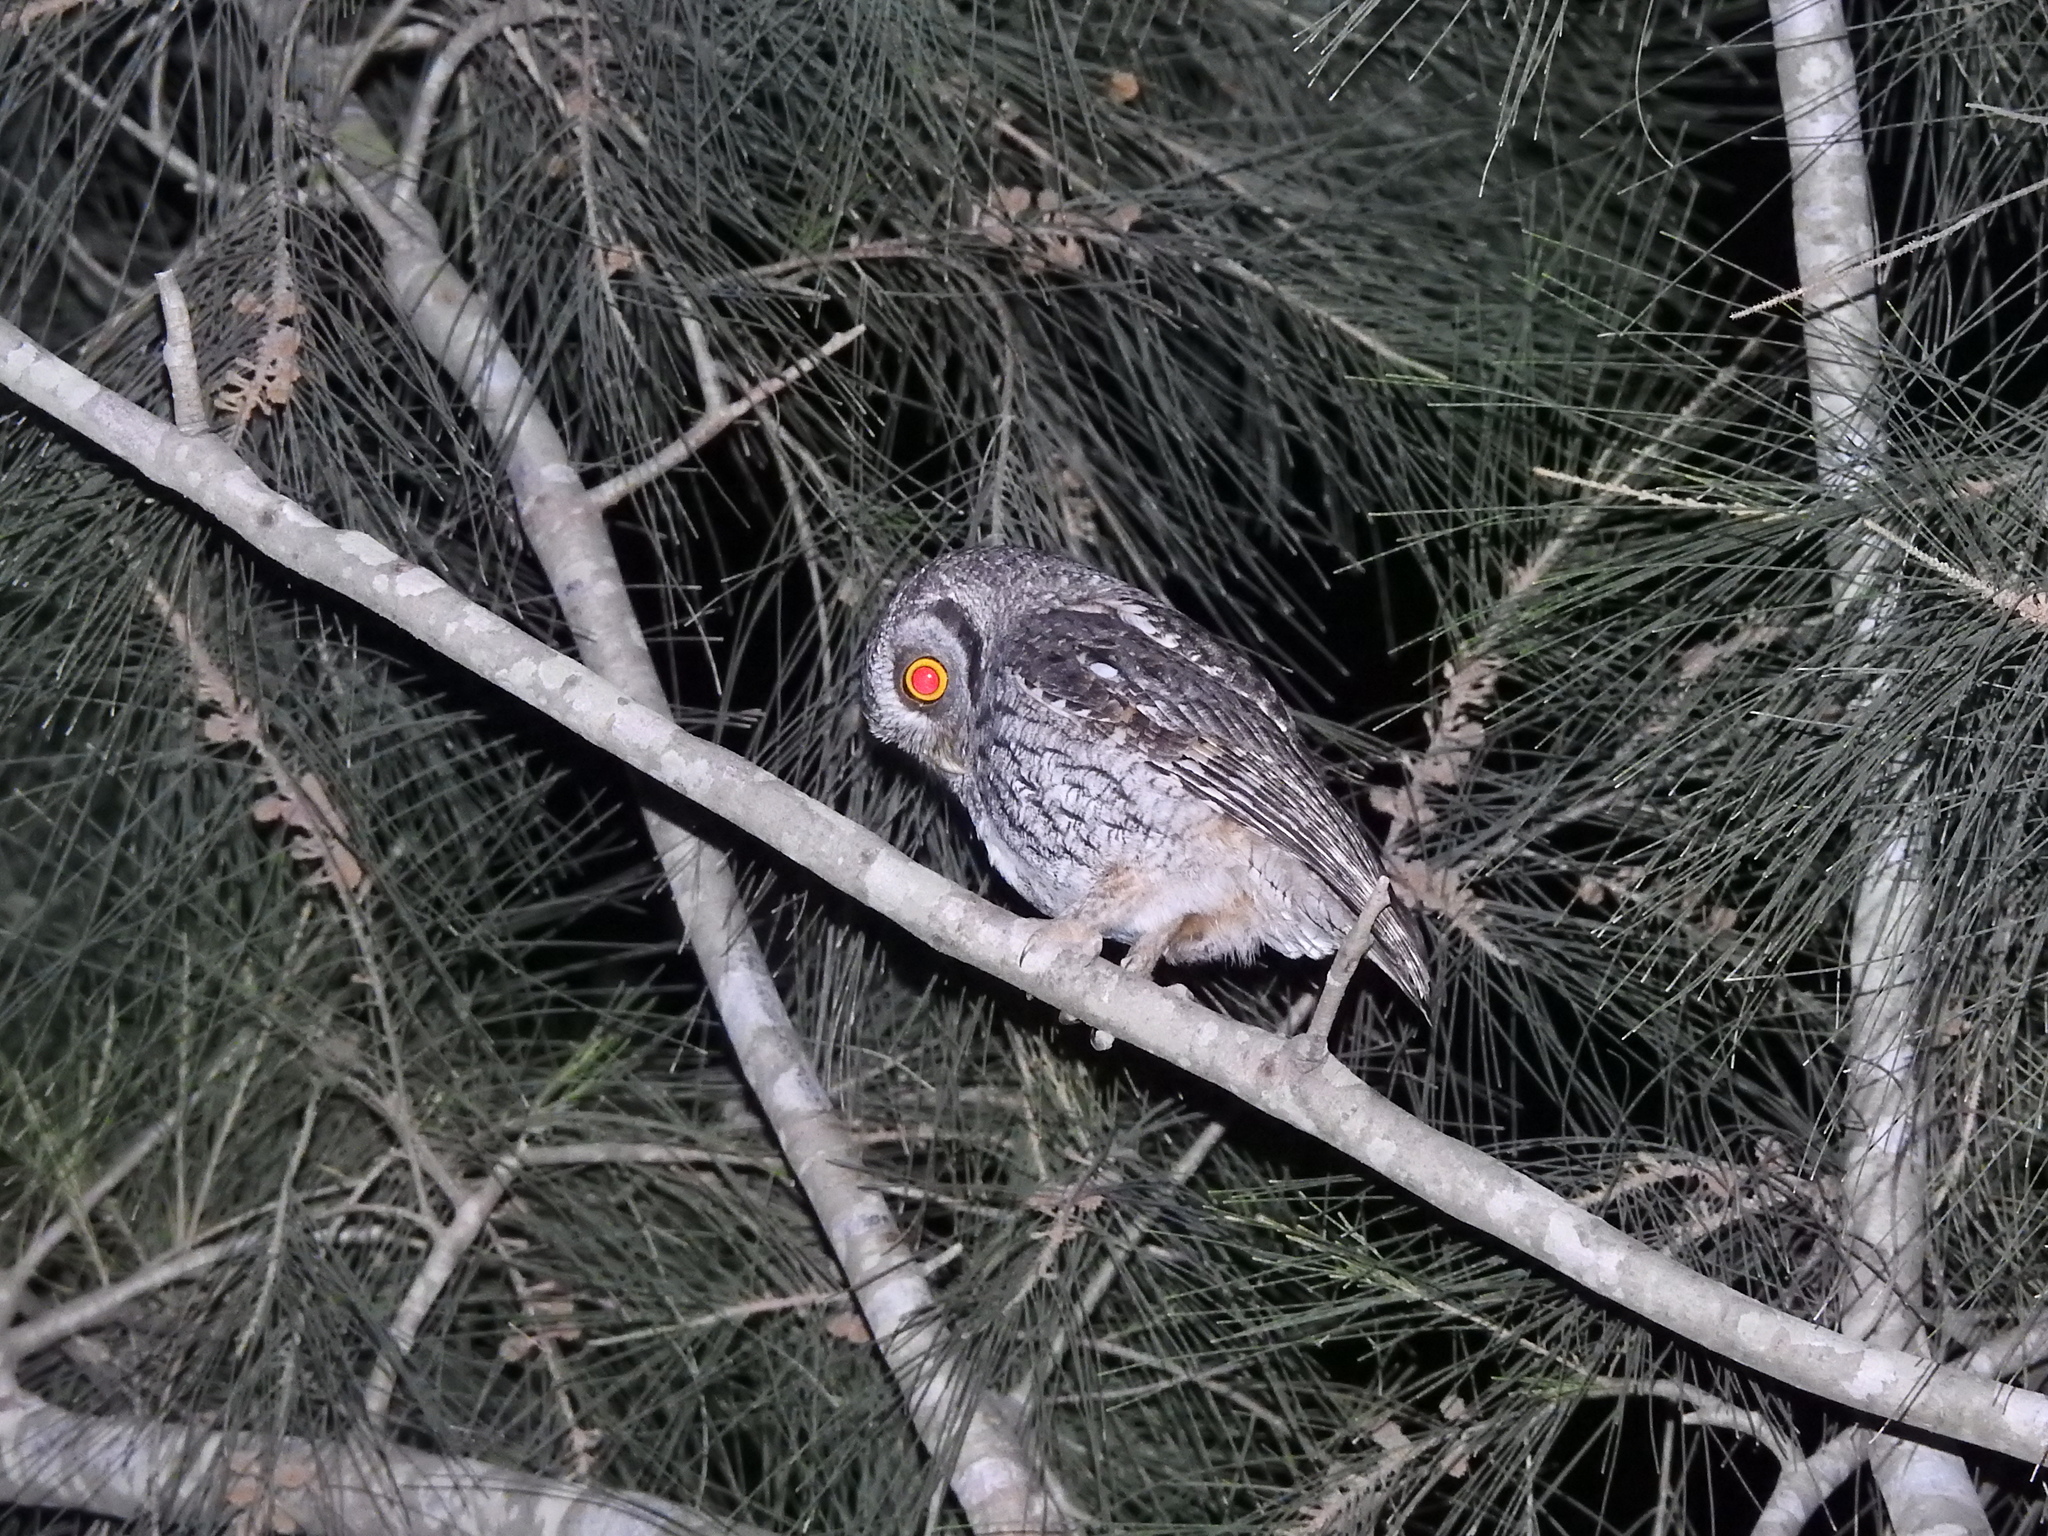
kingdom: Animalia
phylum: Chordata
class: Aves
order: Strigiformes
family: Strigidae
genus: Megascops
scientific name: Megascops choliba
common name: Tropical screech-owl
